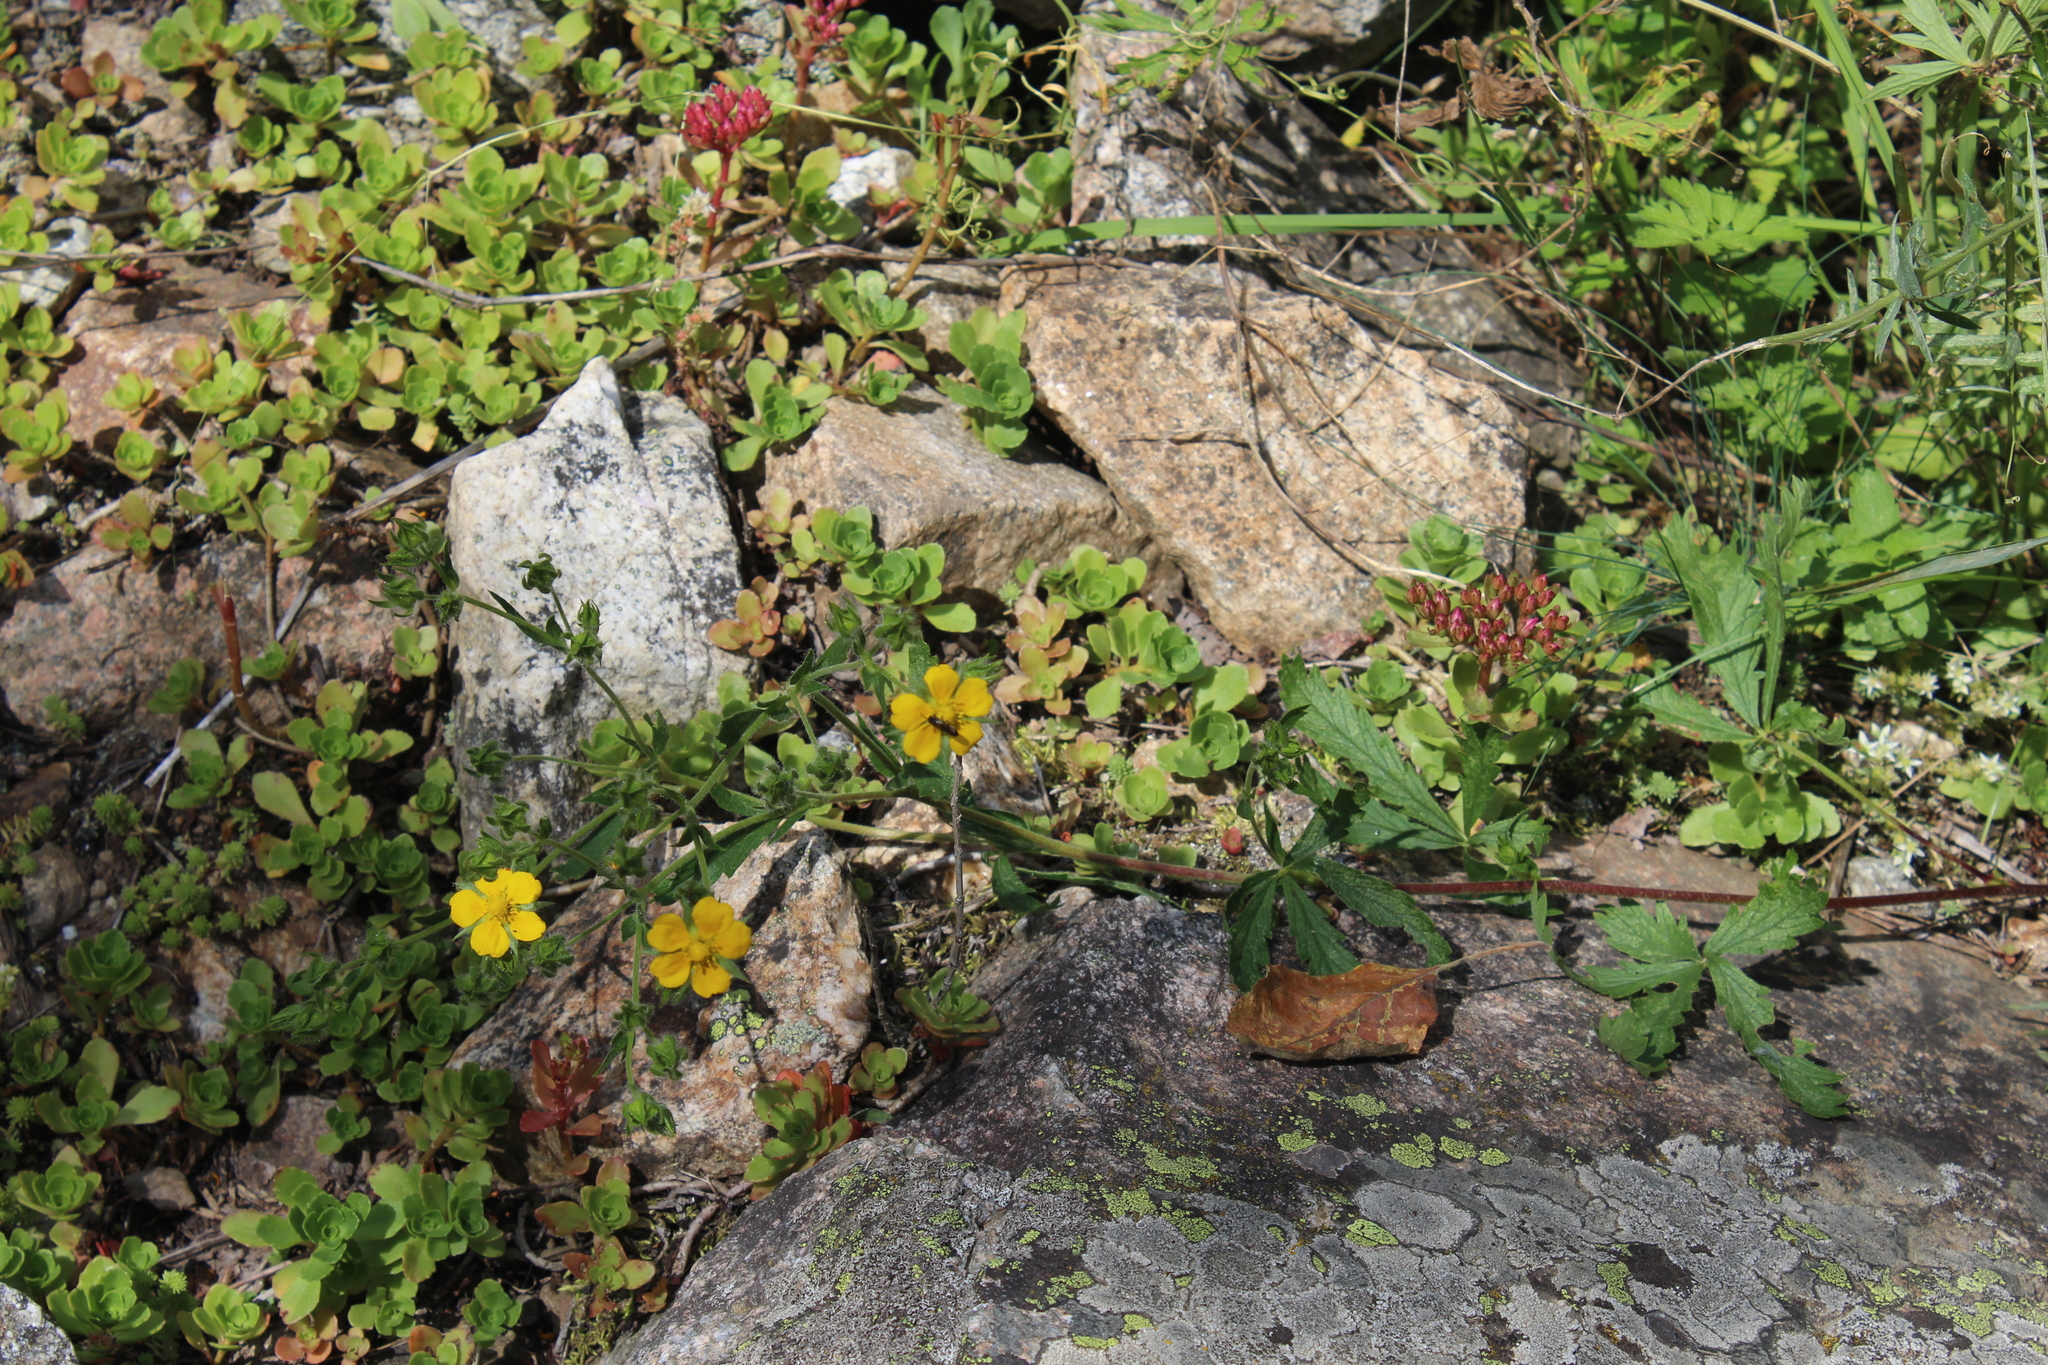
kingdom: Plantae
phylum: Tracheophyta
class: Magnoliopsida
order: Rosales
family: Rosaceae
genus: Potentilla
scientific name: Potentilla recta
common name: Sulphur cinquefoil
